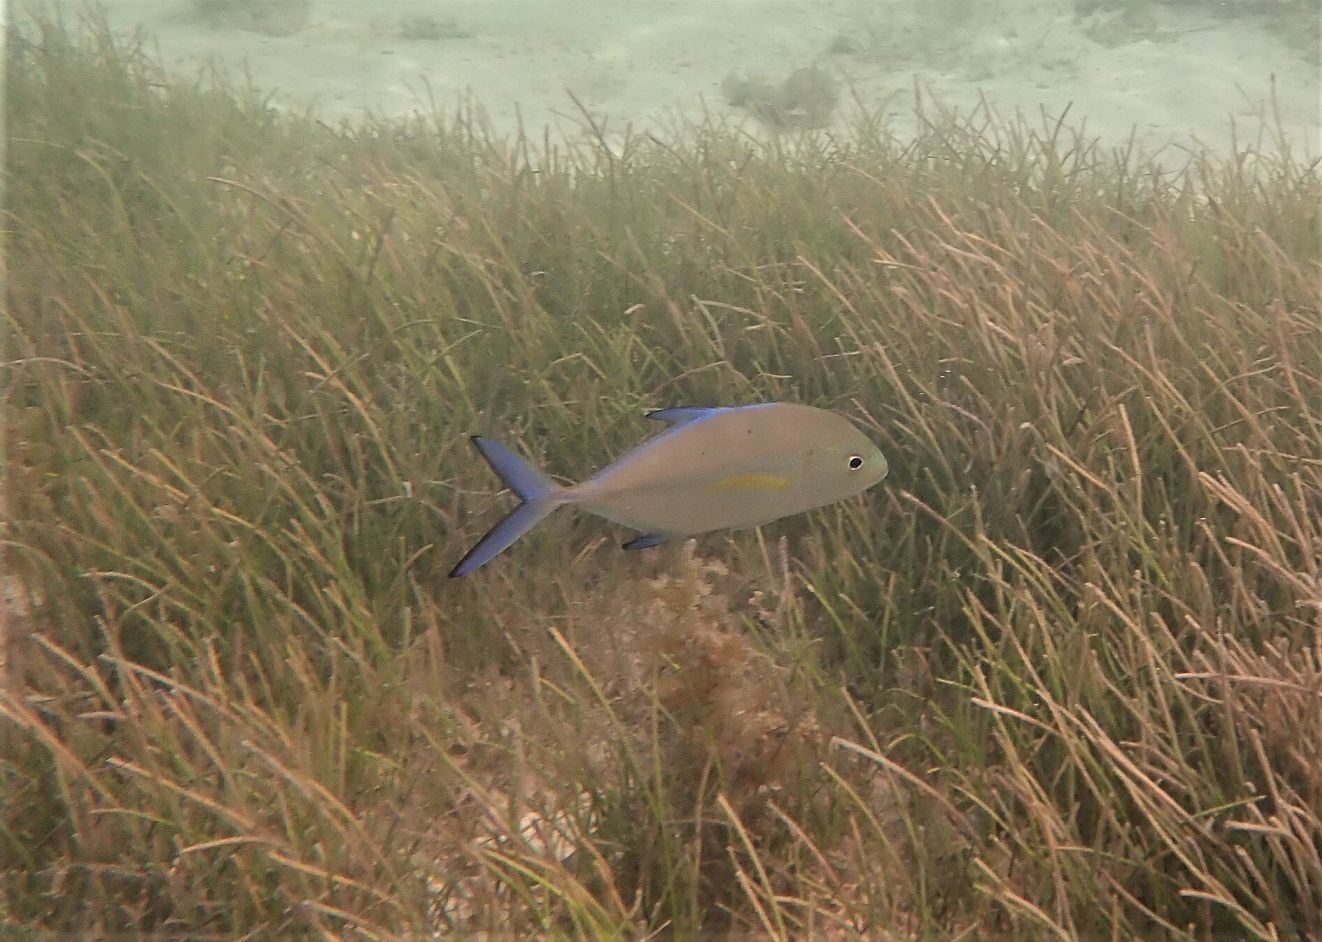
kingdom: Animalia
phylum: Chordata
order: Perciformes
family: Carangidae
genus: Caranx
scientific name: Caranx melampygus
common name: Bluefin trevally
